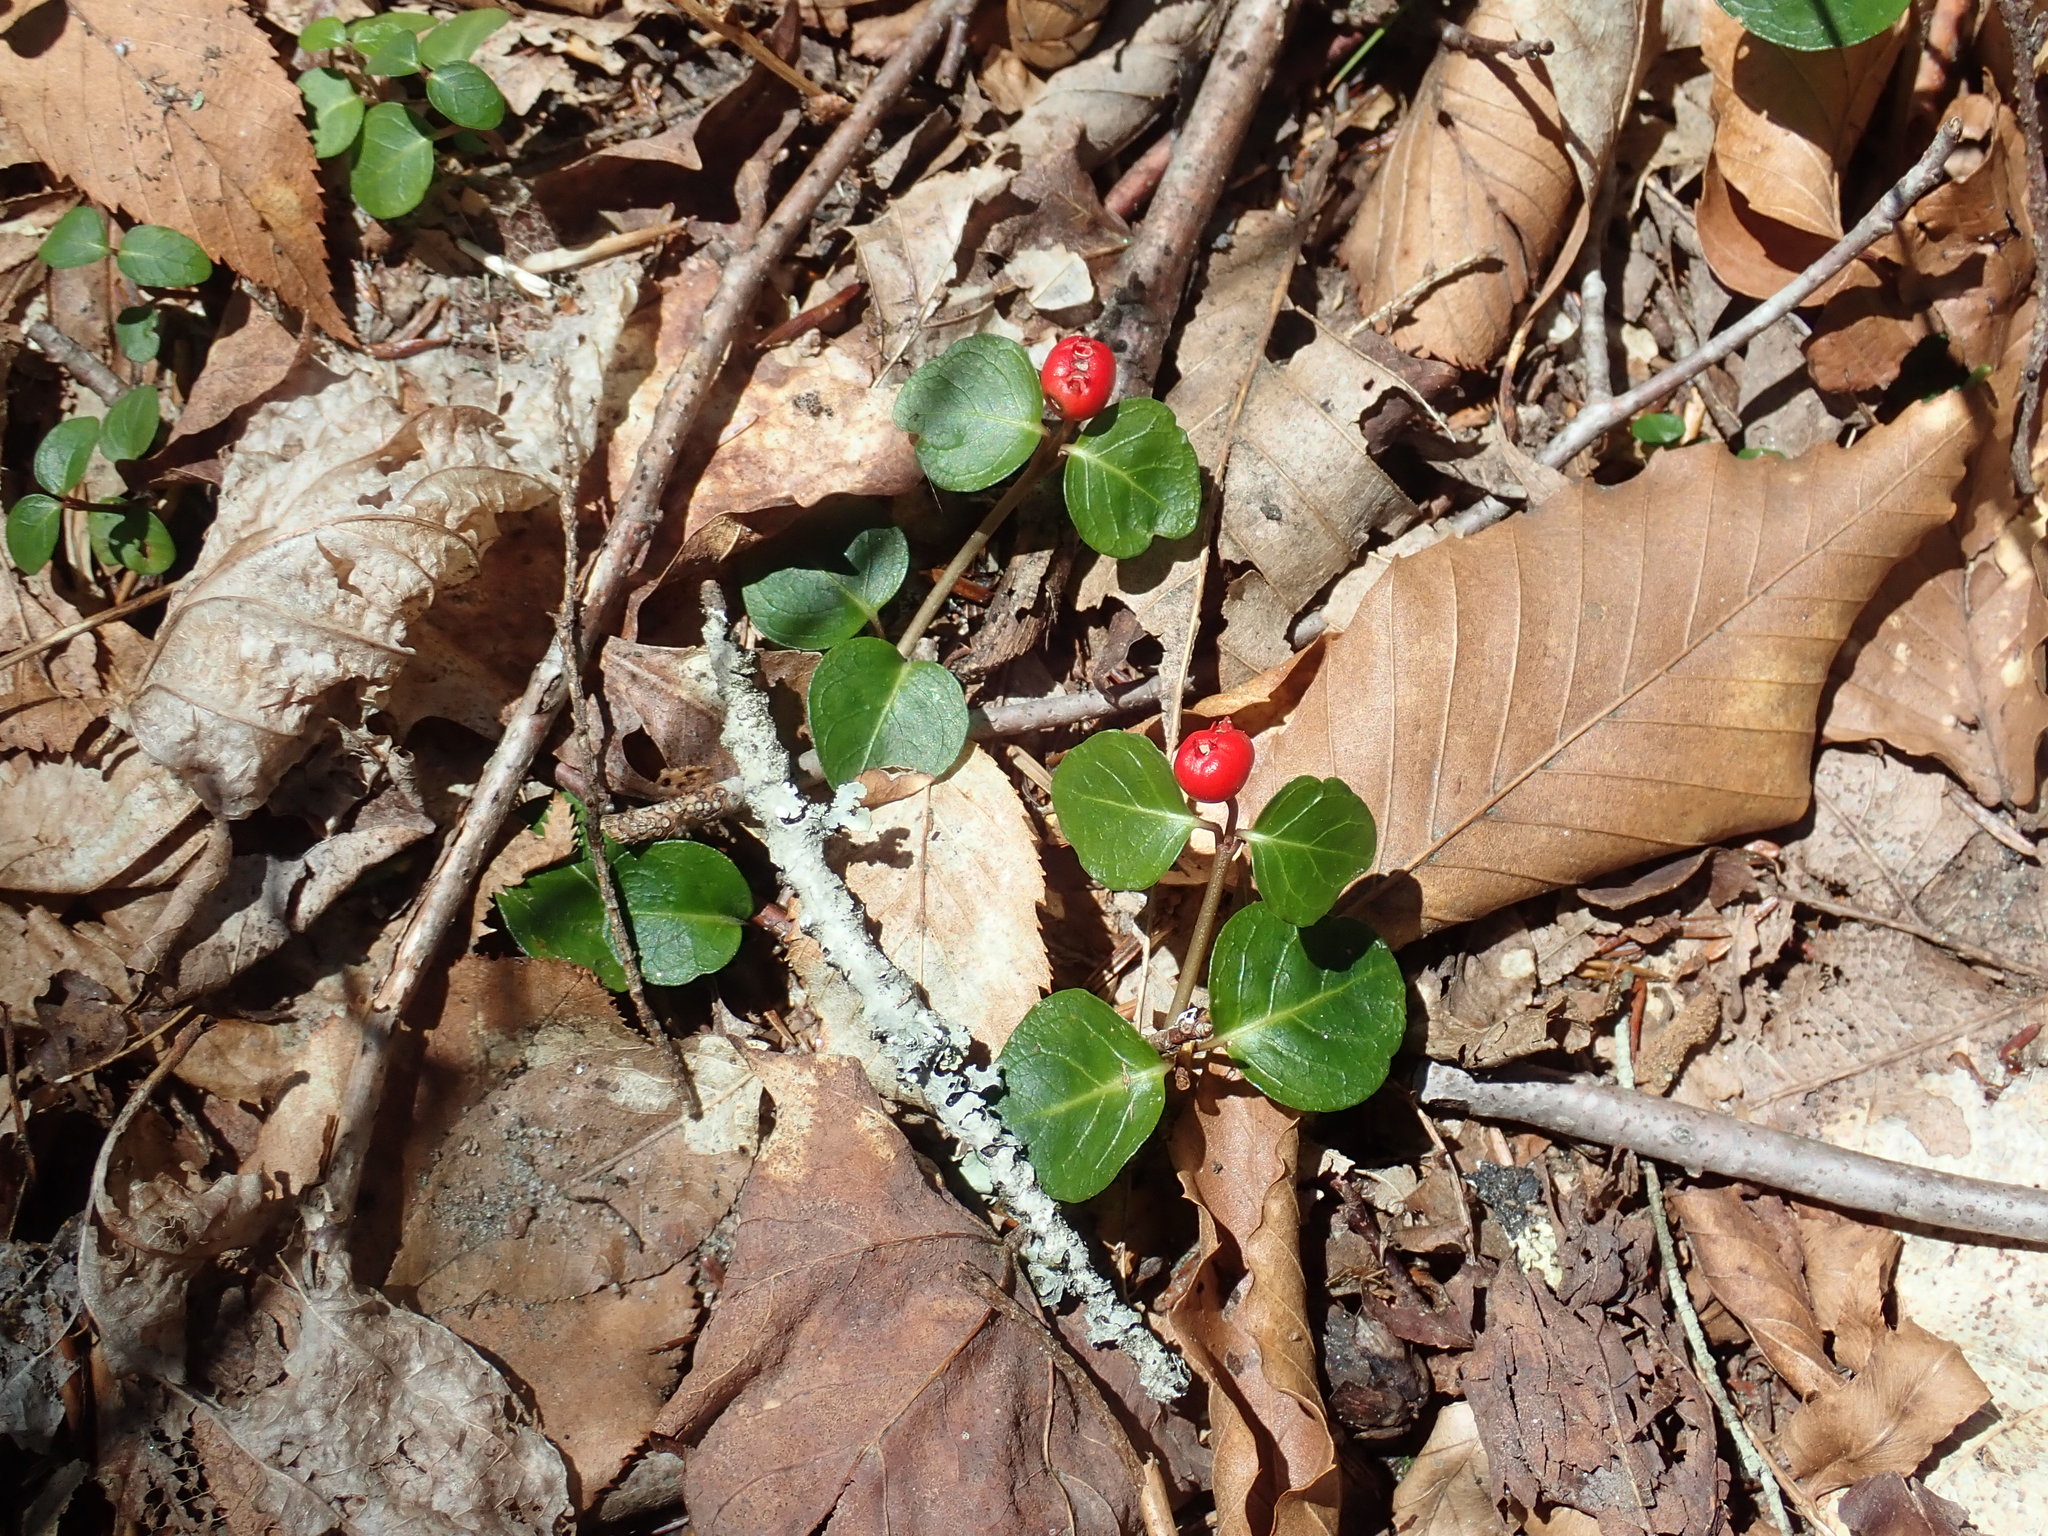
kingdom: Plantae
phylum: Tracheophyta
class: Magnoliopsida
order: Gentianales
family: Rubiaceae
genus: Mitchella
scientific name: Mitchella repens
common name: Partridge-berry
